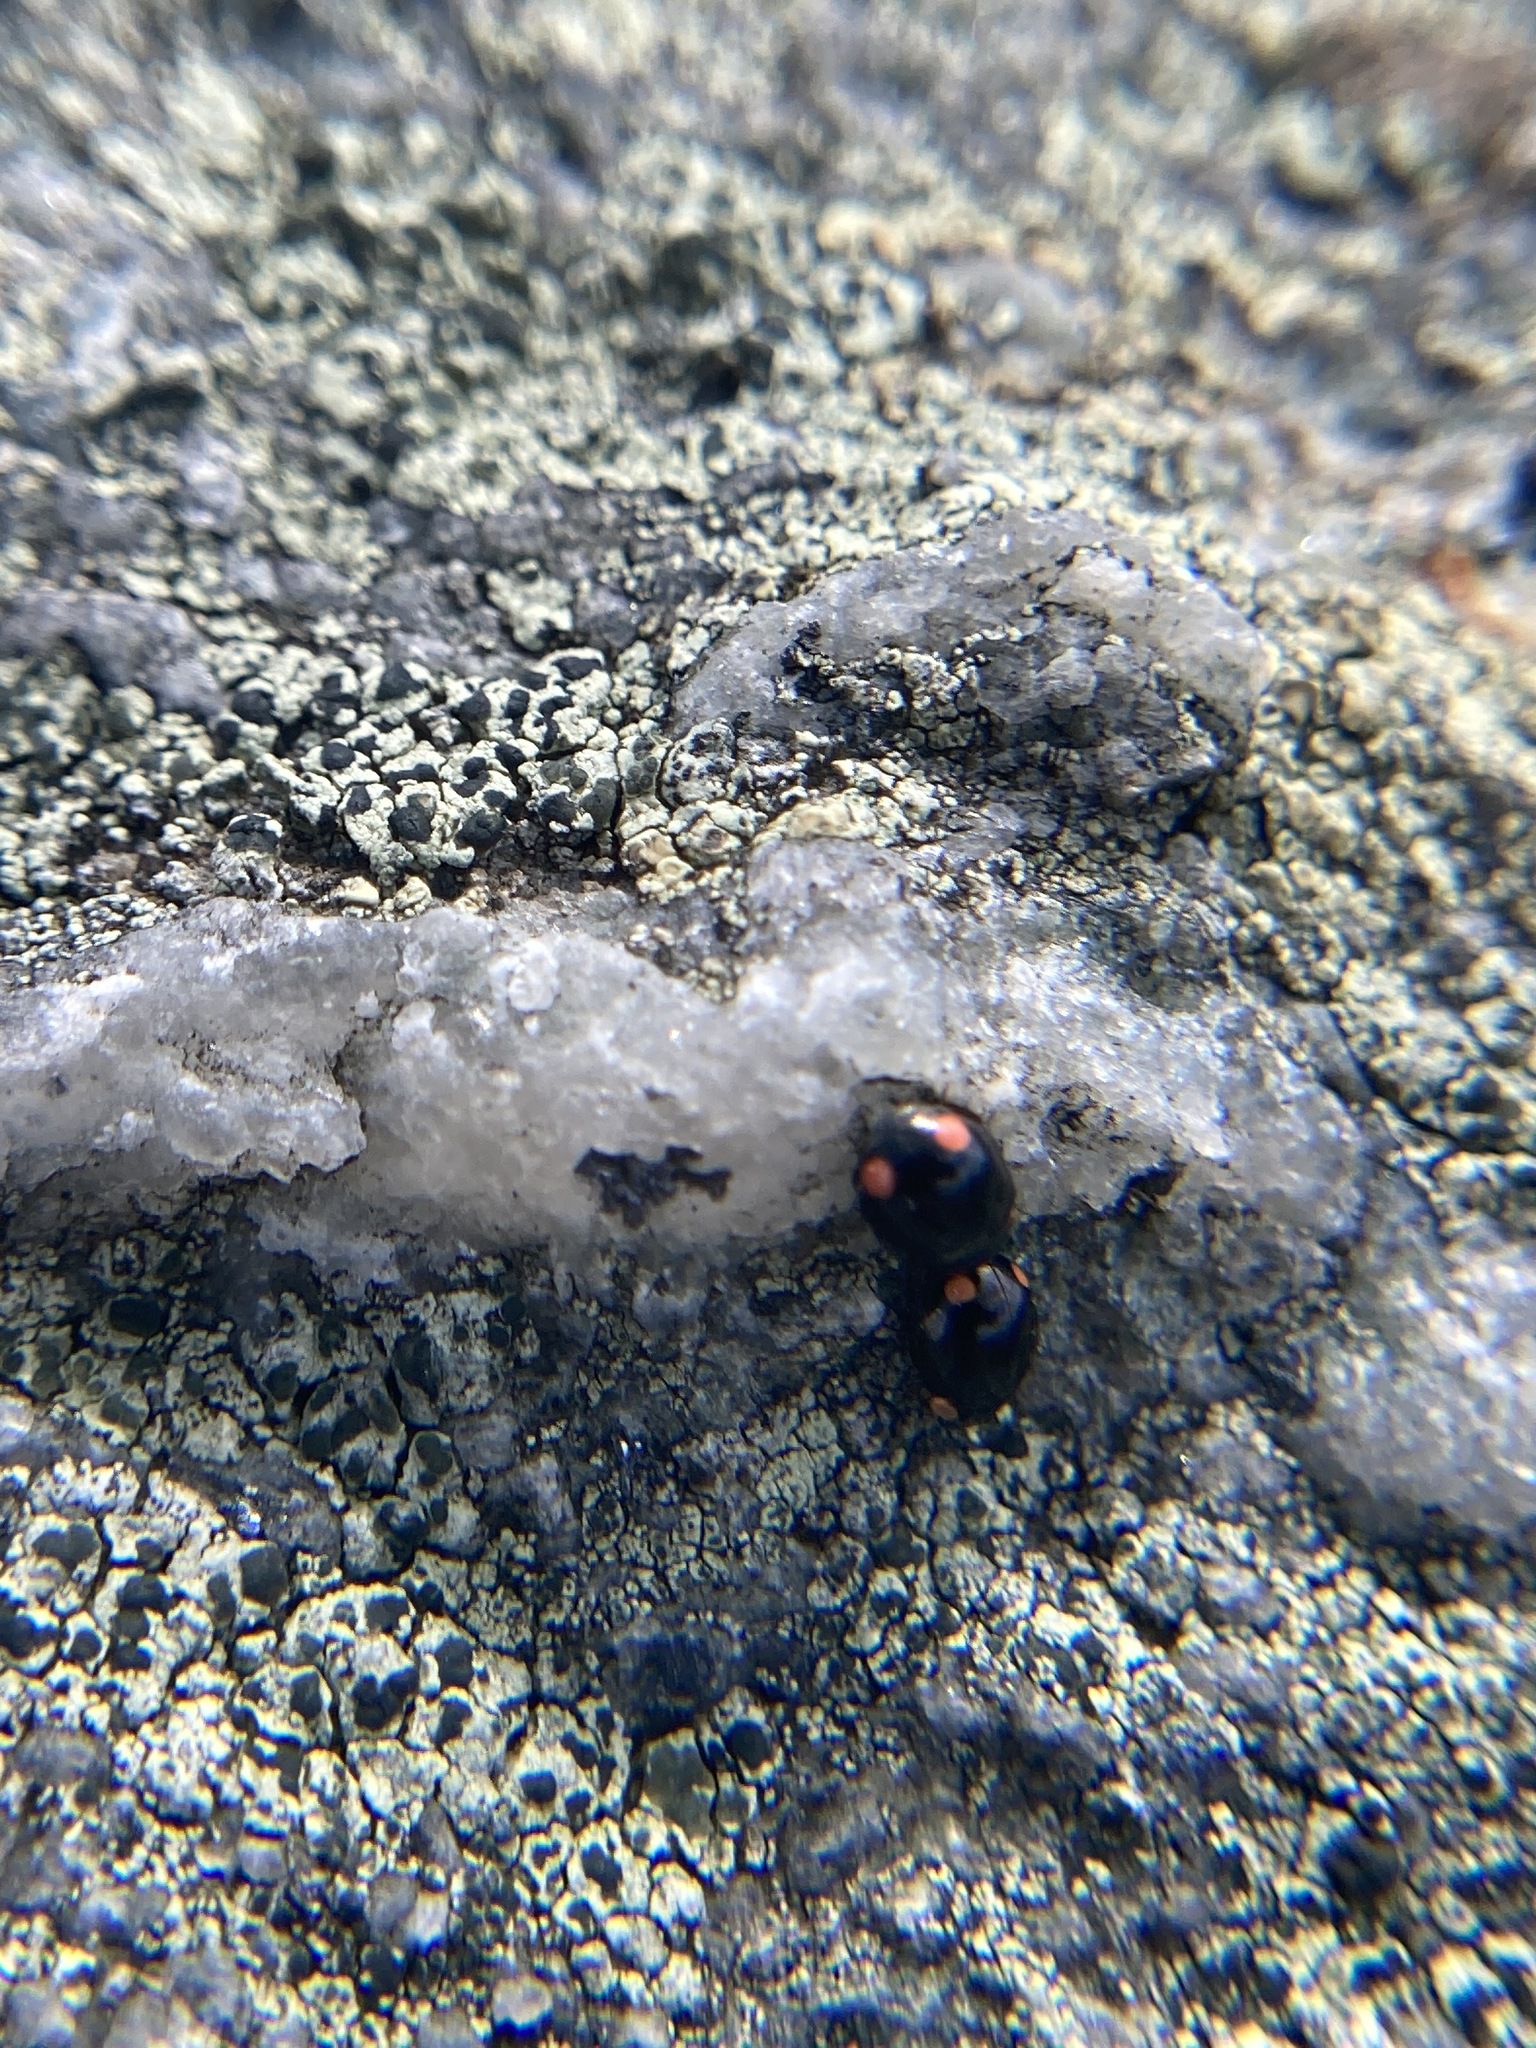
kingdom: Animalia
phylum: Arthropoda
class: Insecta
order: Coleoptera
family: Coccinellidae
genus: Hyperaspis
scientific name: Hyperaspis bigeminata
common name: Bigeminate sigil lady beetle
